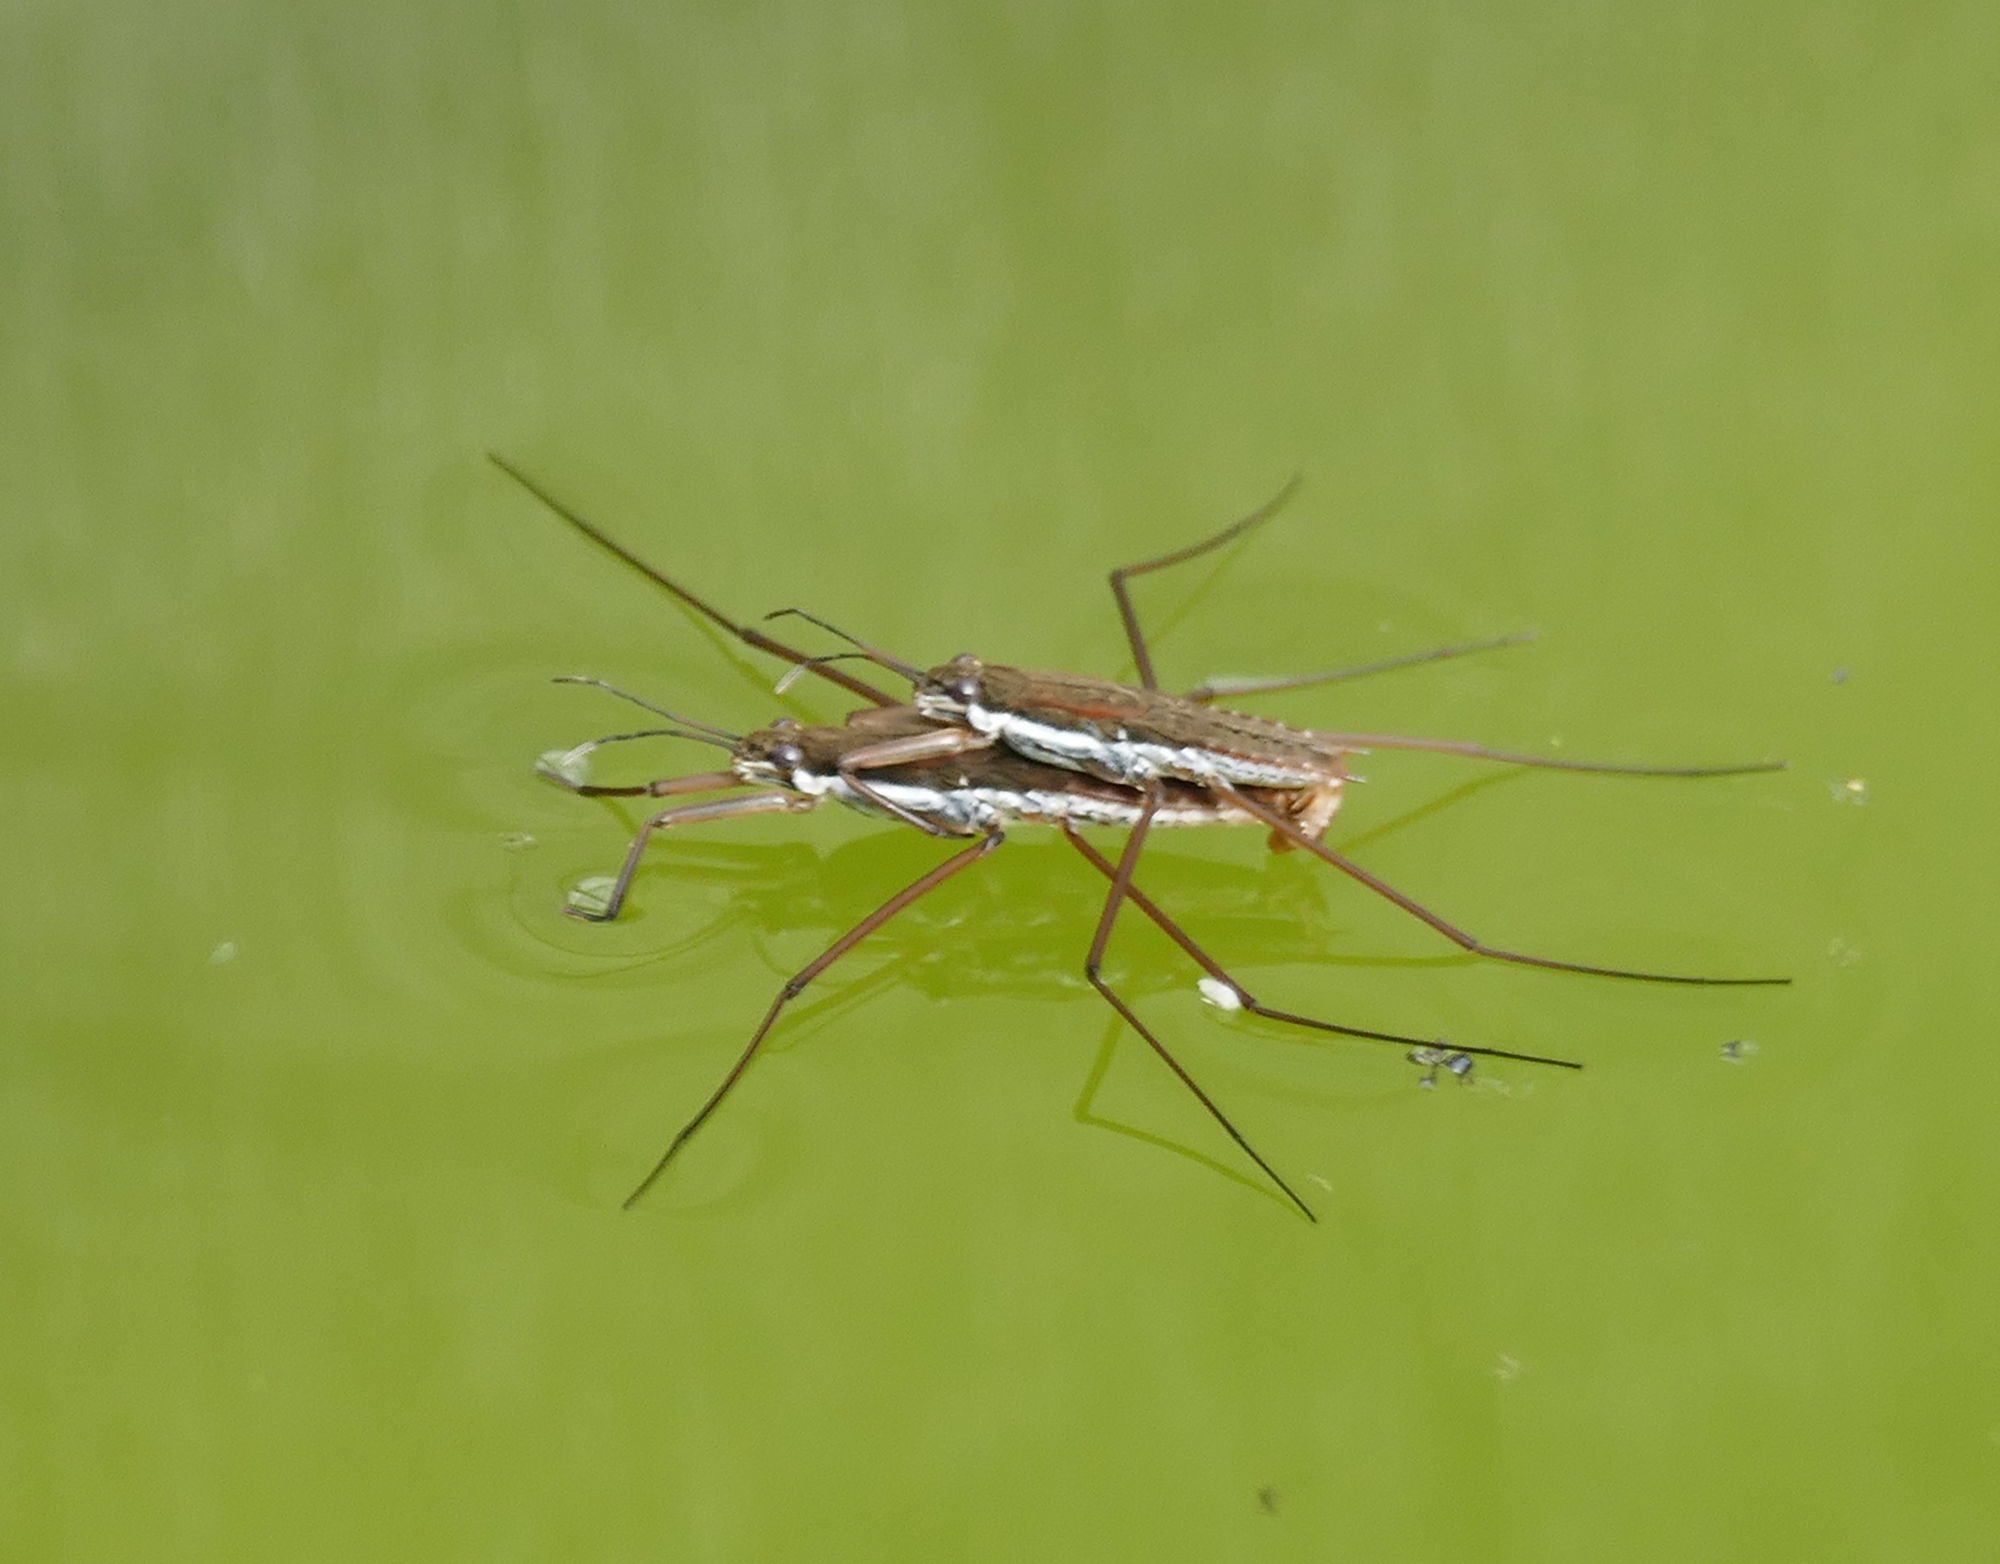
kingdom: Animalia
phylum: Arthropoda
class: Insecta
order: Hemiptera
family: Gerridae
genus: Aquarius
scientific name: Aquarius remigis
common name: Common water strider
